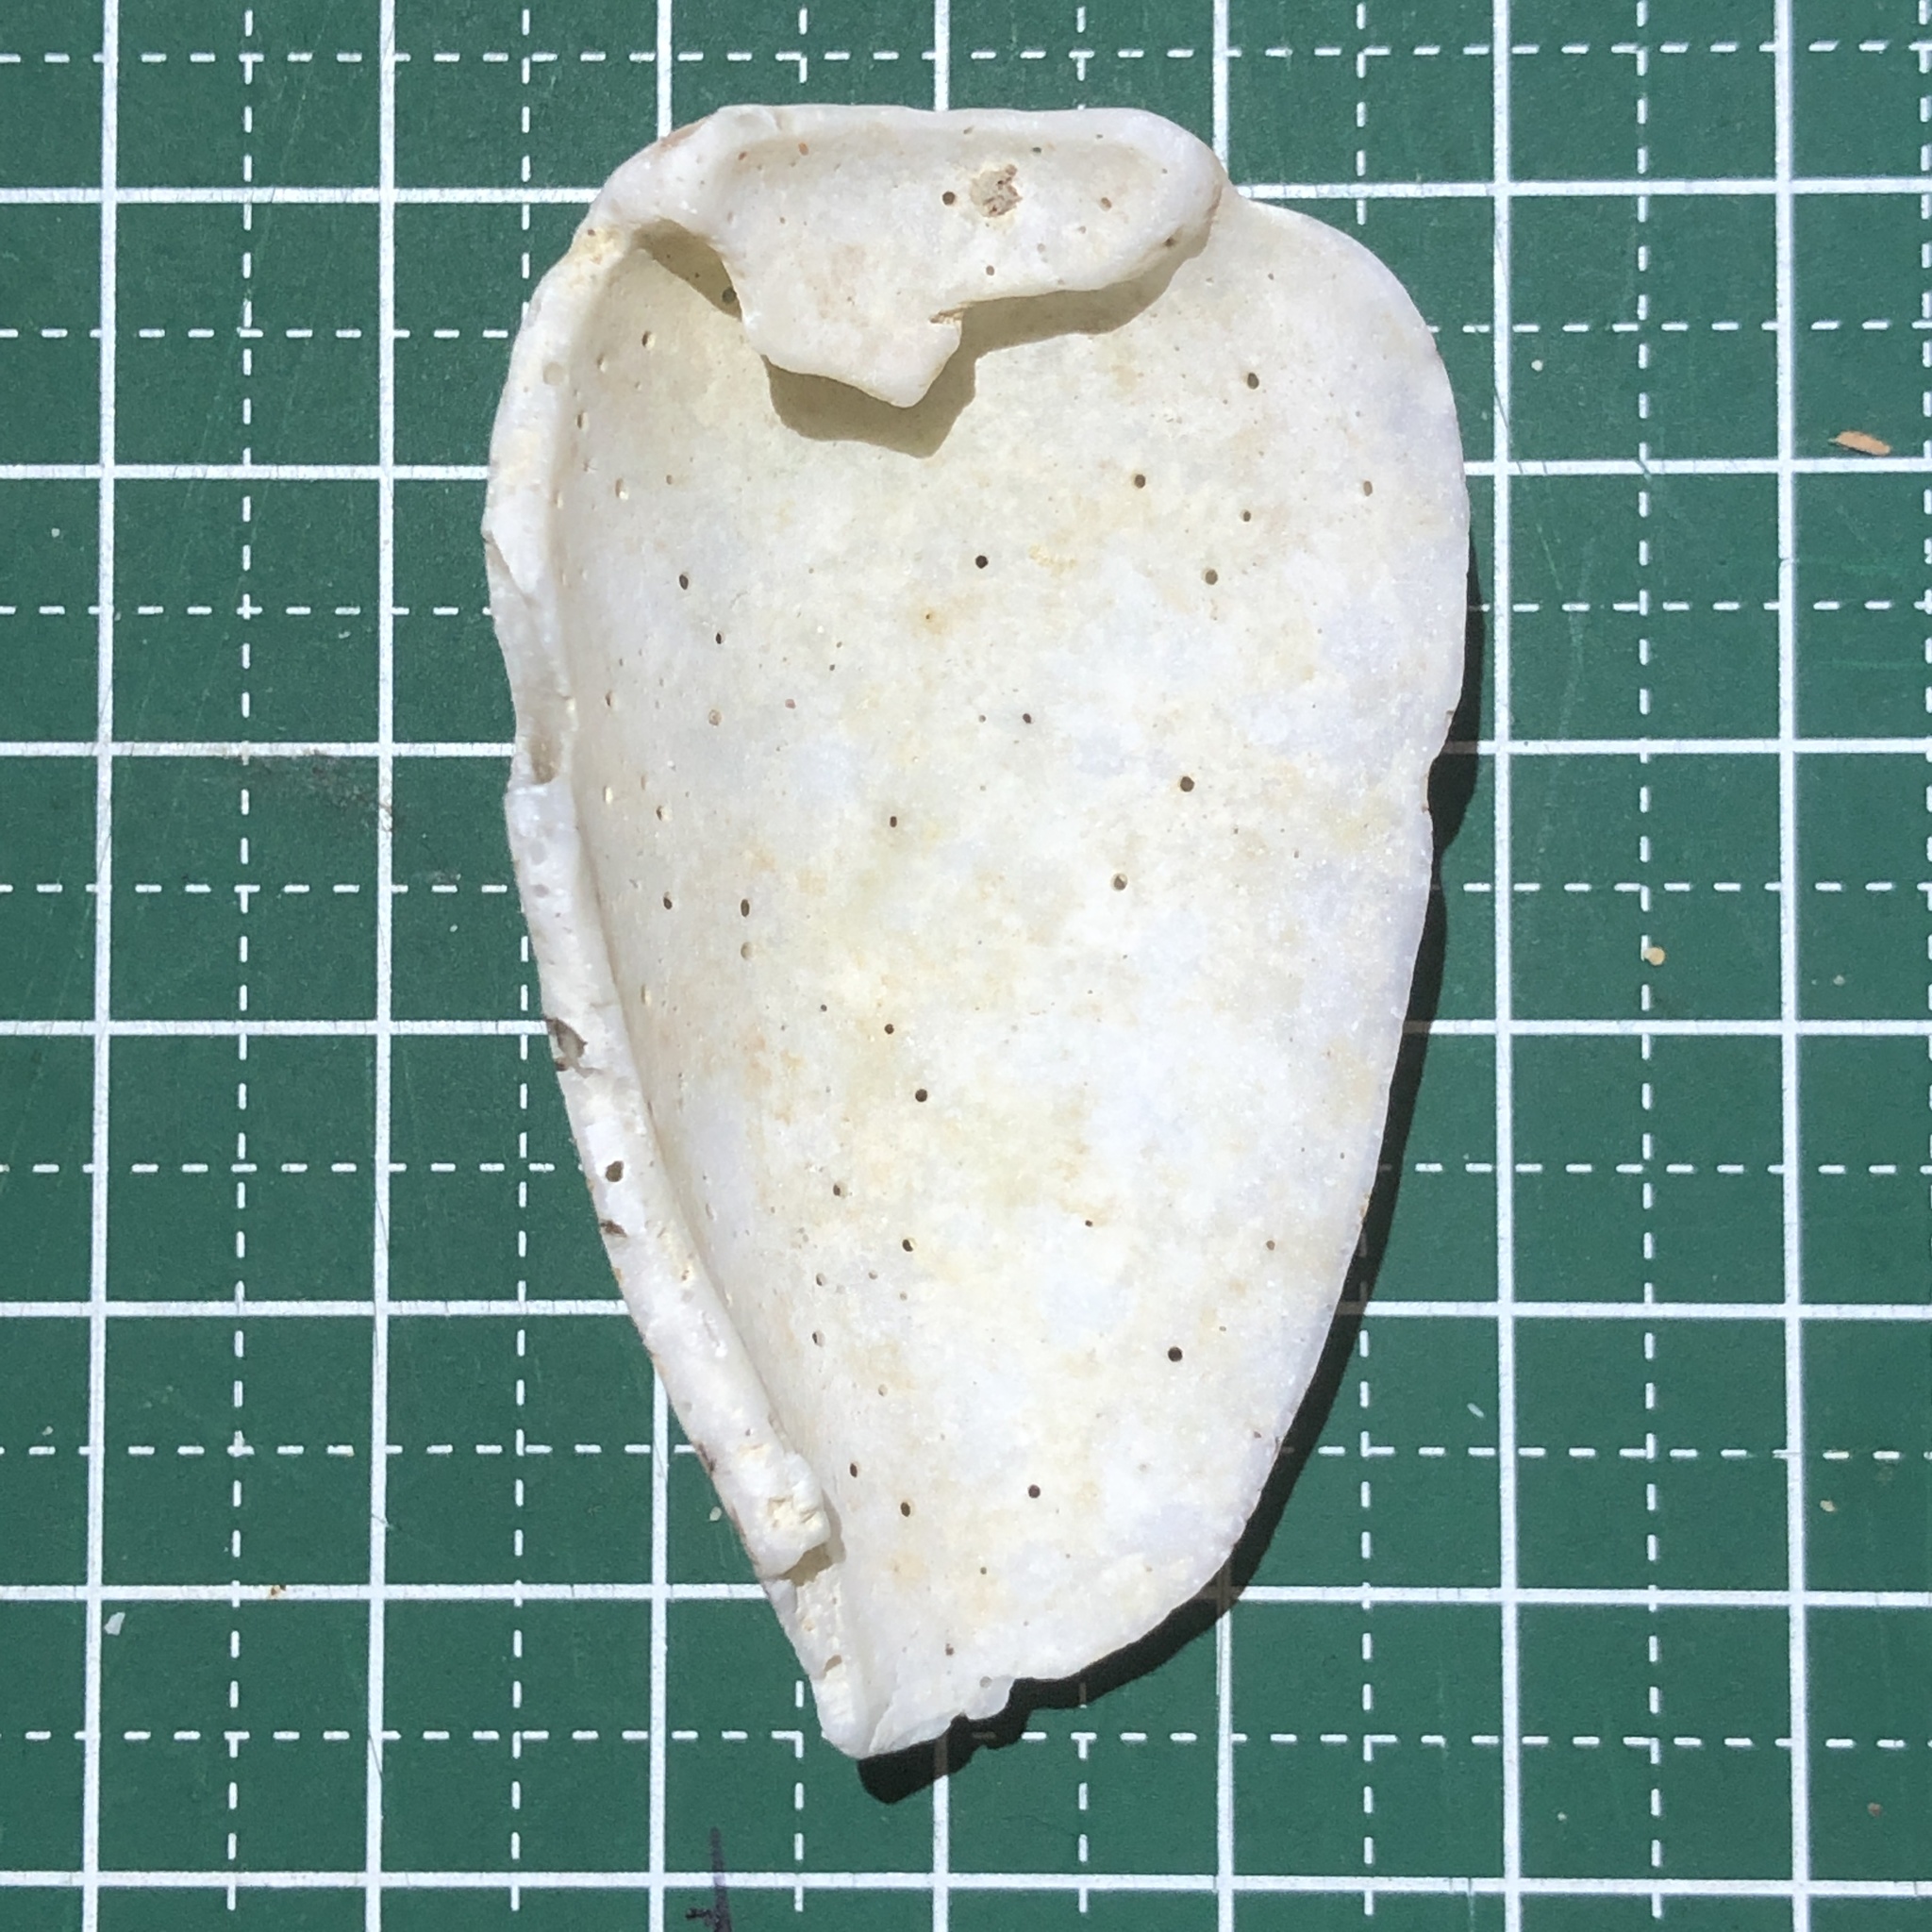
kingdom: Animalia
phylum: Mollusca
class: Gastropoda
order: Neogastropoda
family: Conidae
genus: Conus
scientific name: Conus textile
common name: Cloth-of-gold cone
